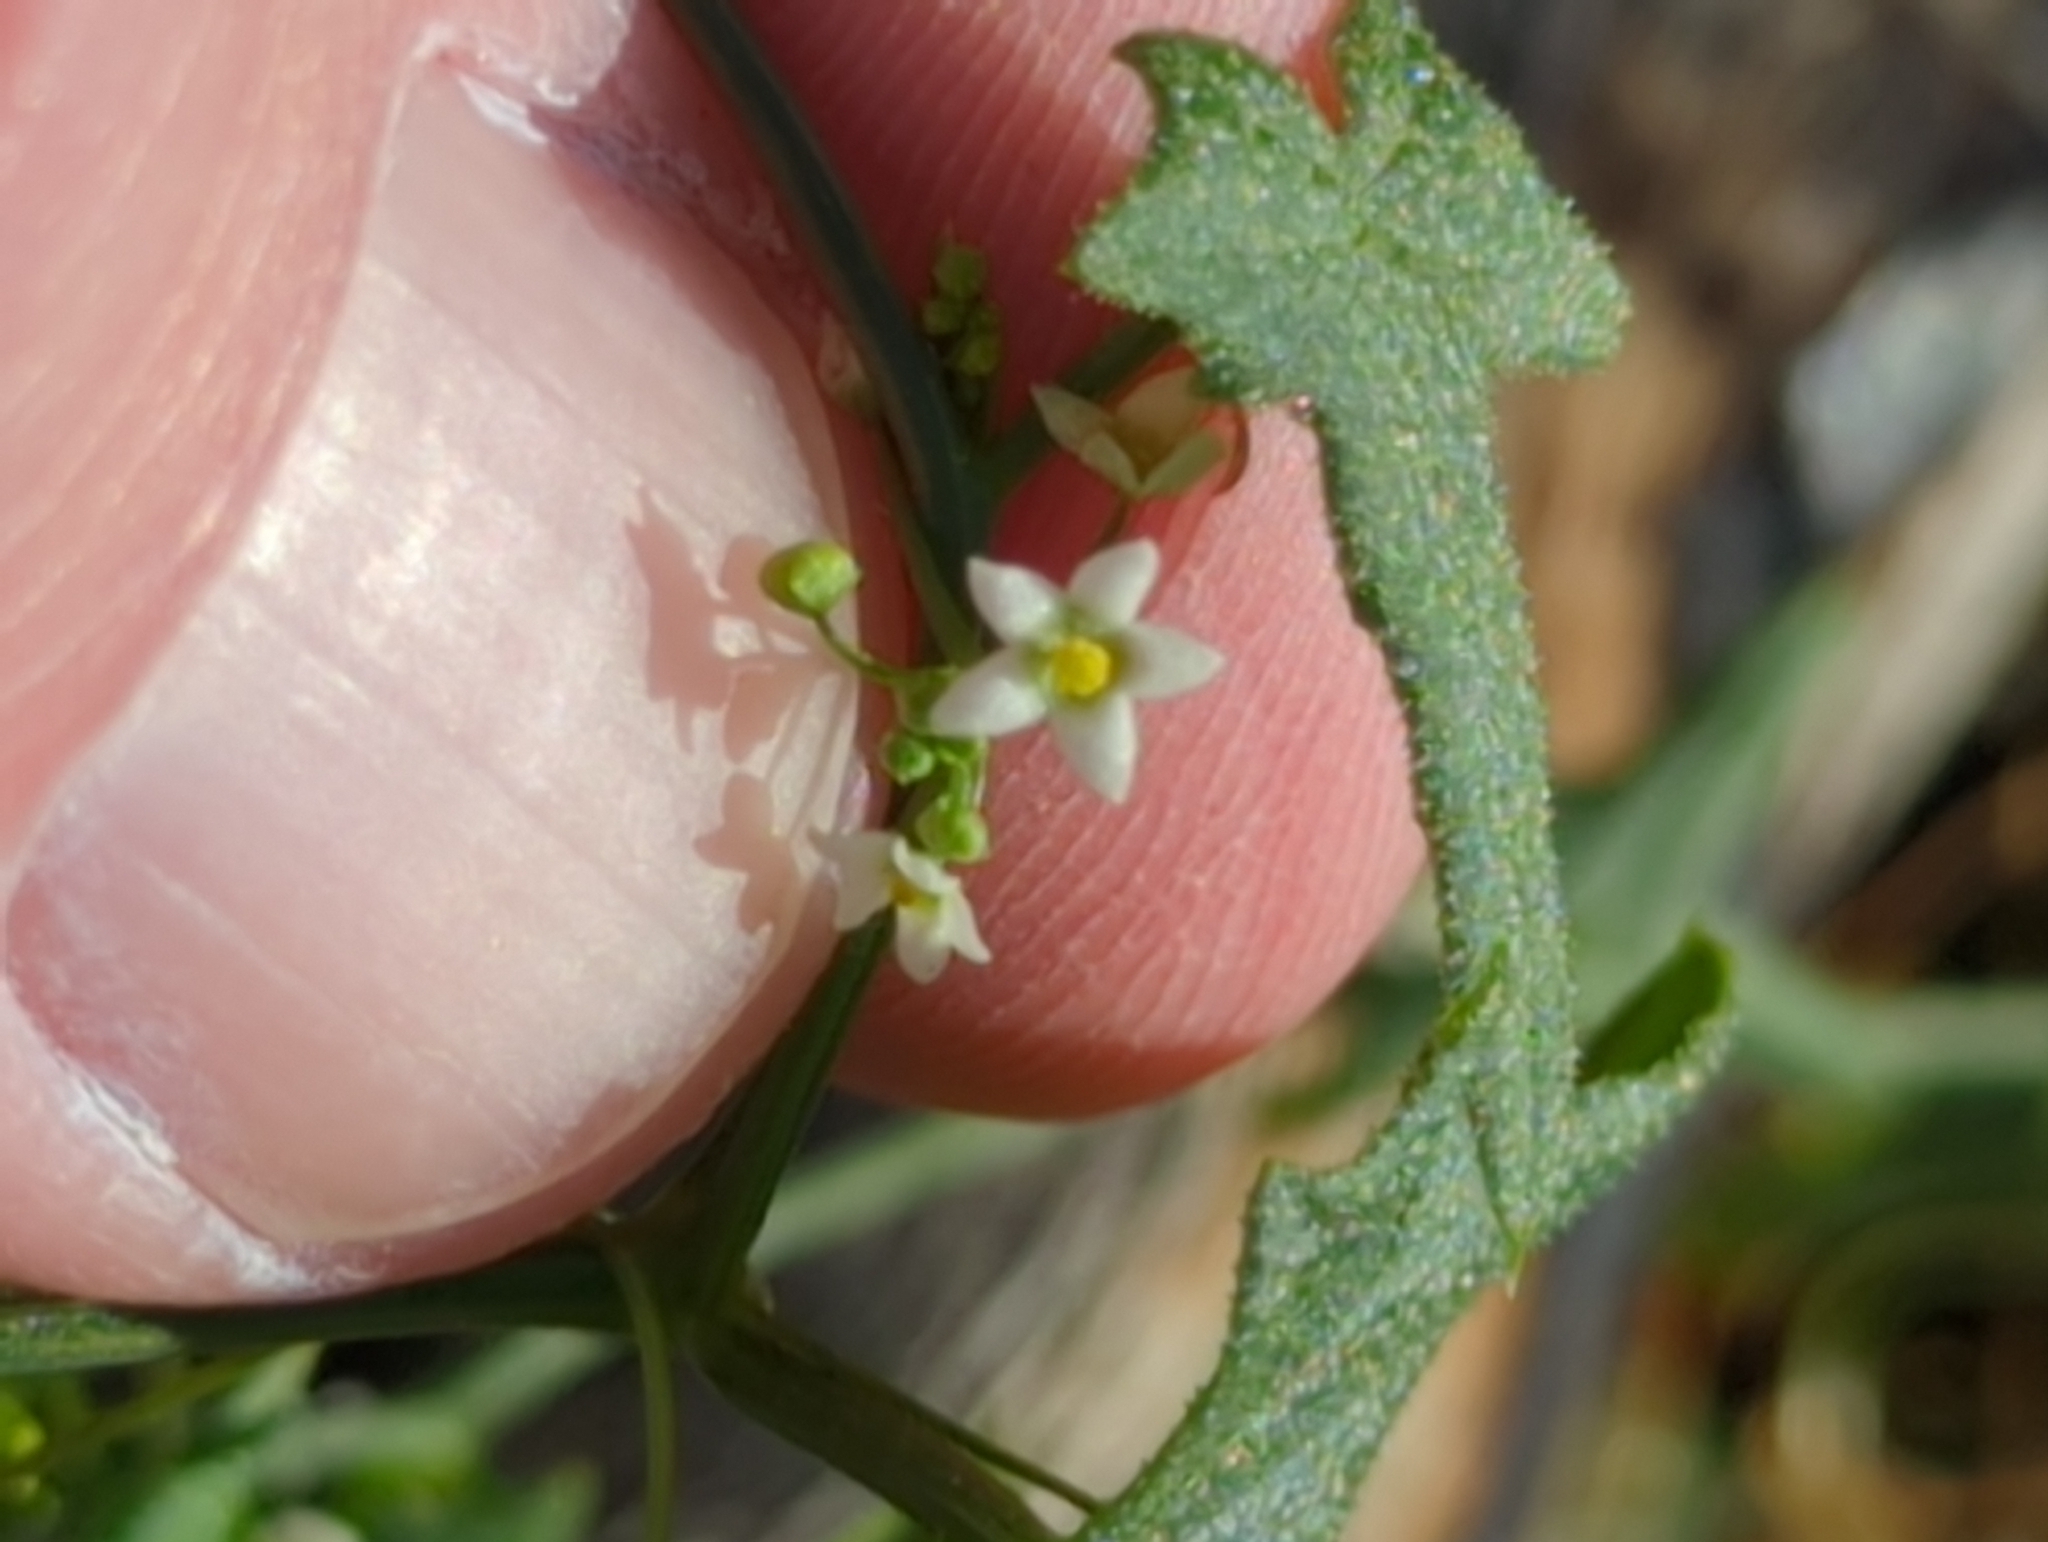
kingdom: Plantae
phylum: Tracheophyta
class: Magnoliopsida
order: Cucurbitales
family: Cucurbitaceae
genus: Echinopepon
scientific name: Echinopepon bigelovii
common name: Desert starvine
